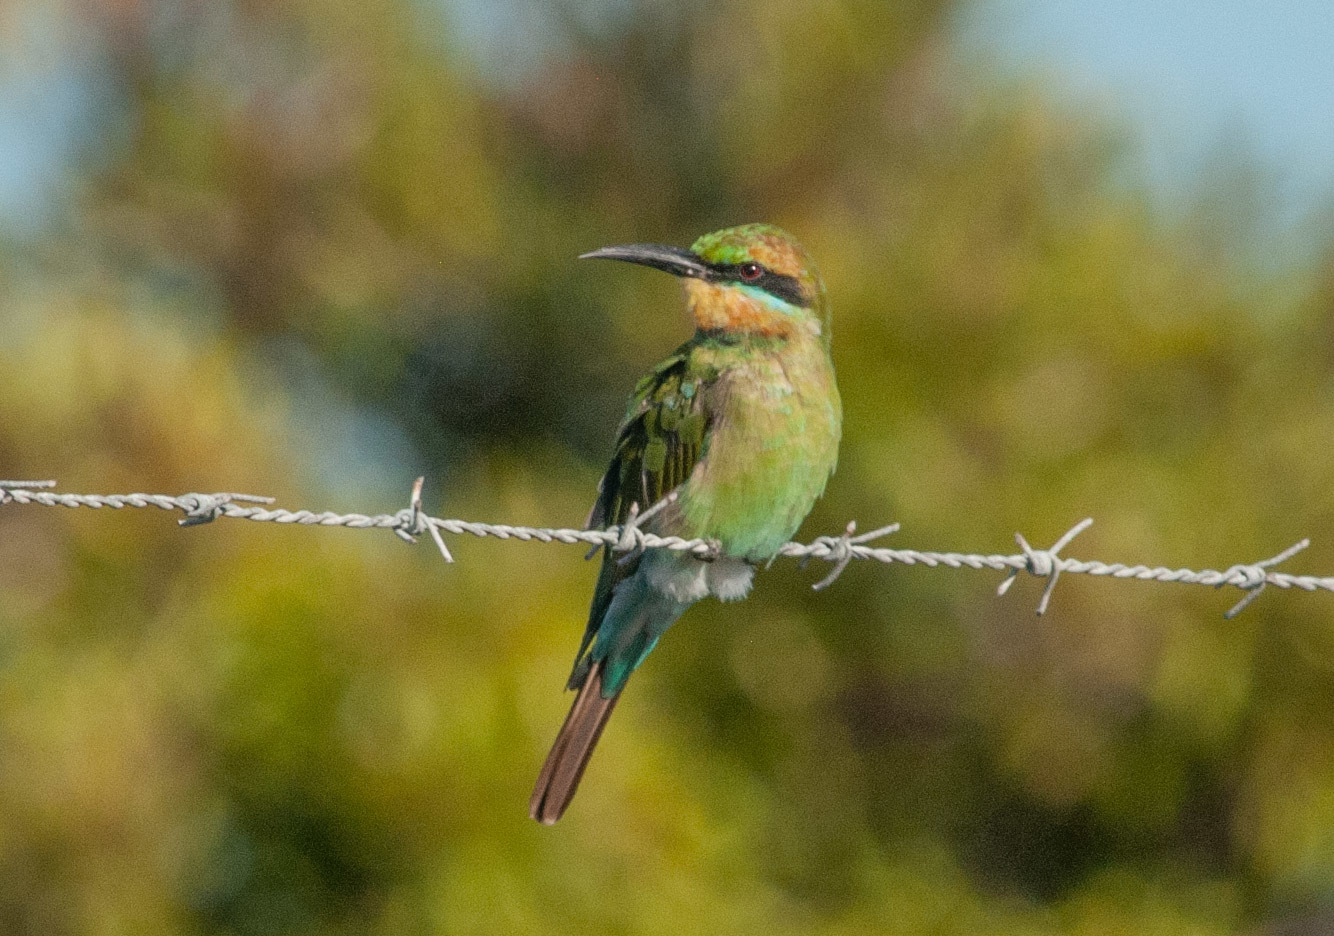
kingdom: Animalia
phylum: Chordata
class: Aves
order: Coraciiformes
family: Meropidae
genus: Merops
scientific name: Merops ornatus
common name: Rainbow bee-eater
